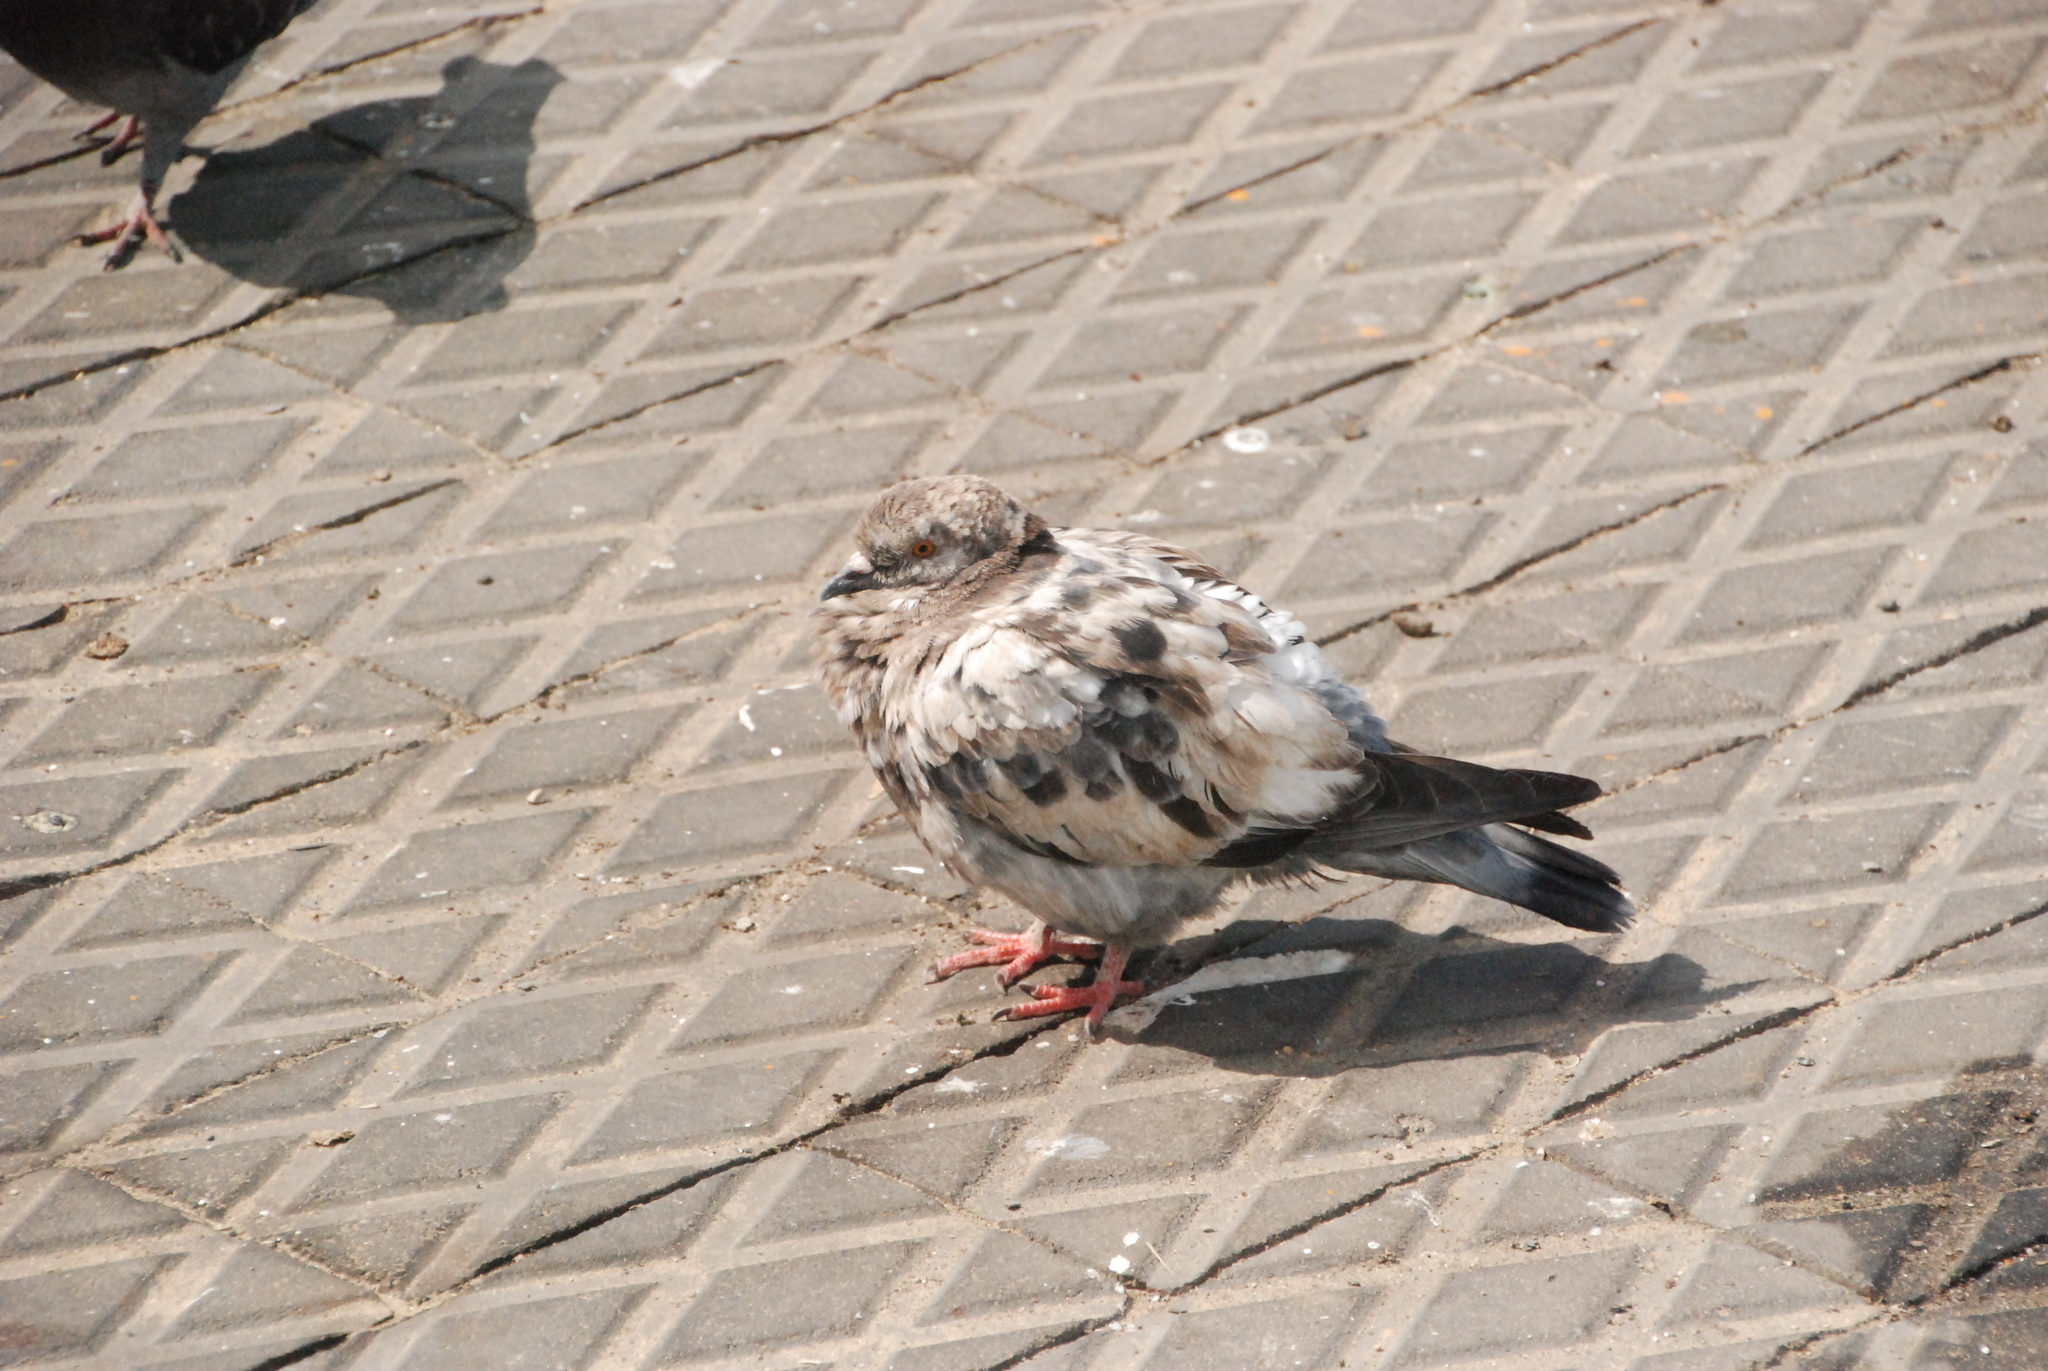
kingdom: Animalia
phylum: Chordata
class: Aves
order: Columbiformes
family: Columbidae
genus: Columba
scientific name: Columba livia
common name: Rock pigeon
